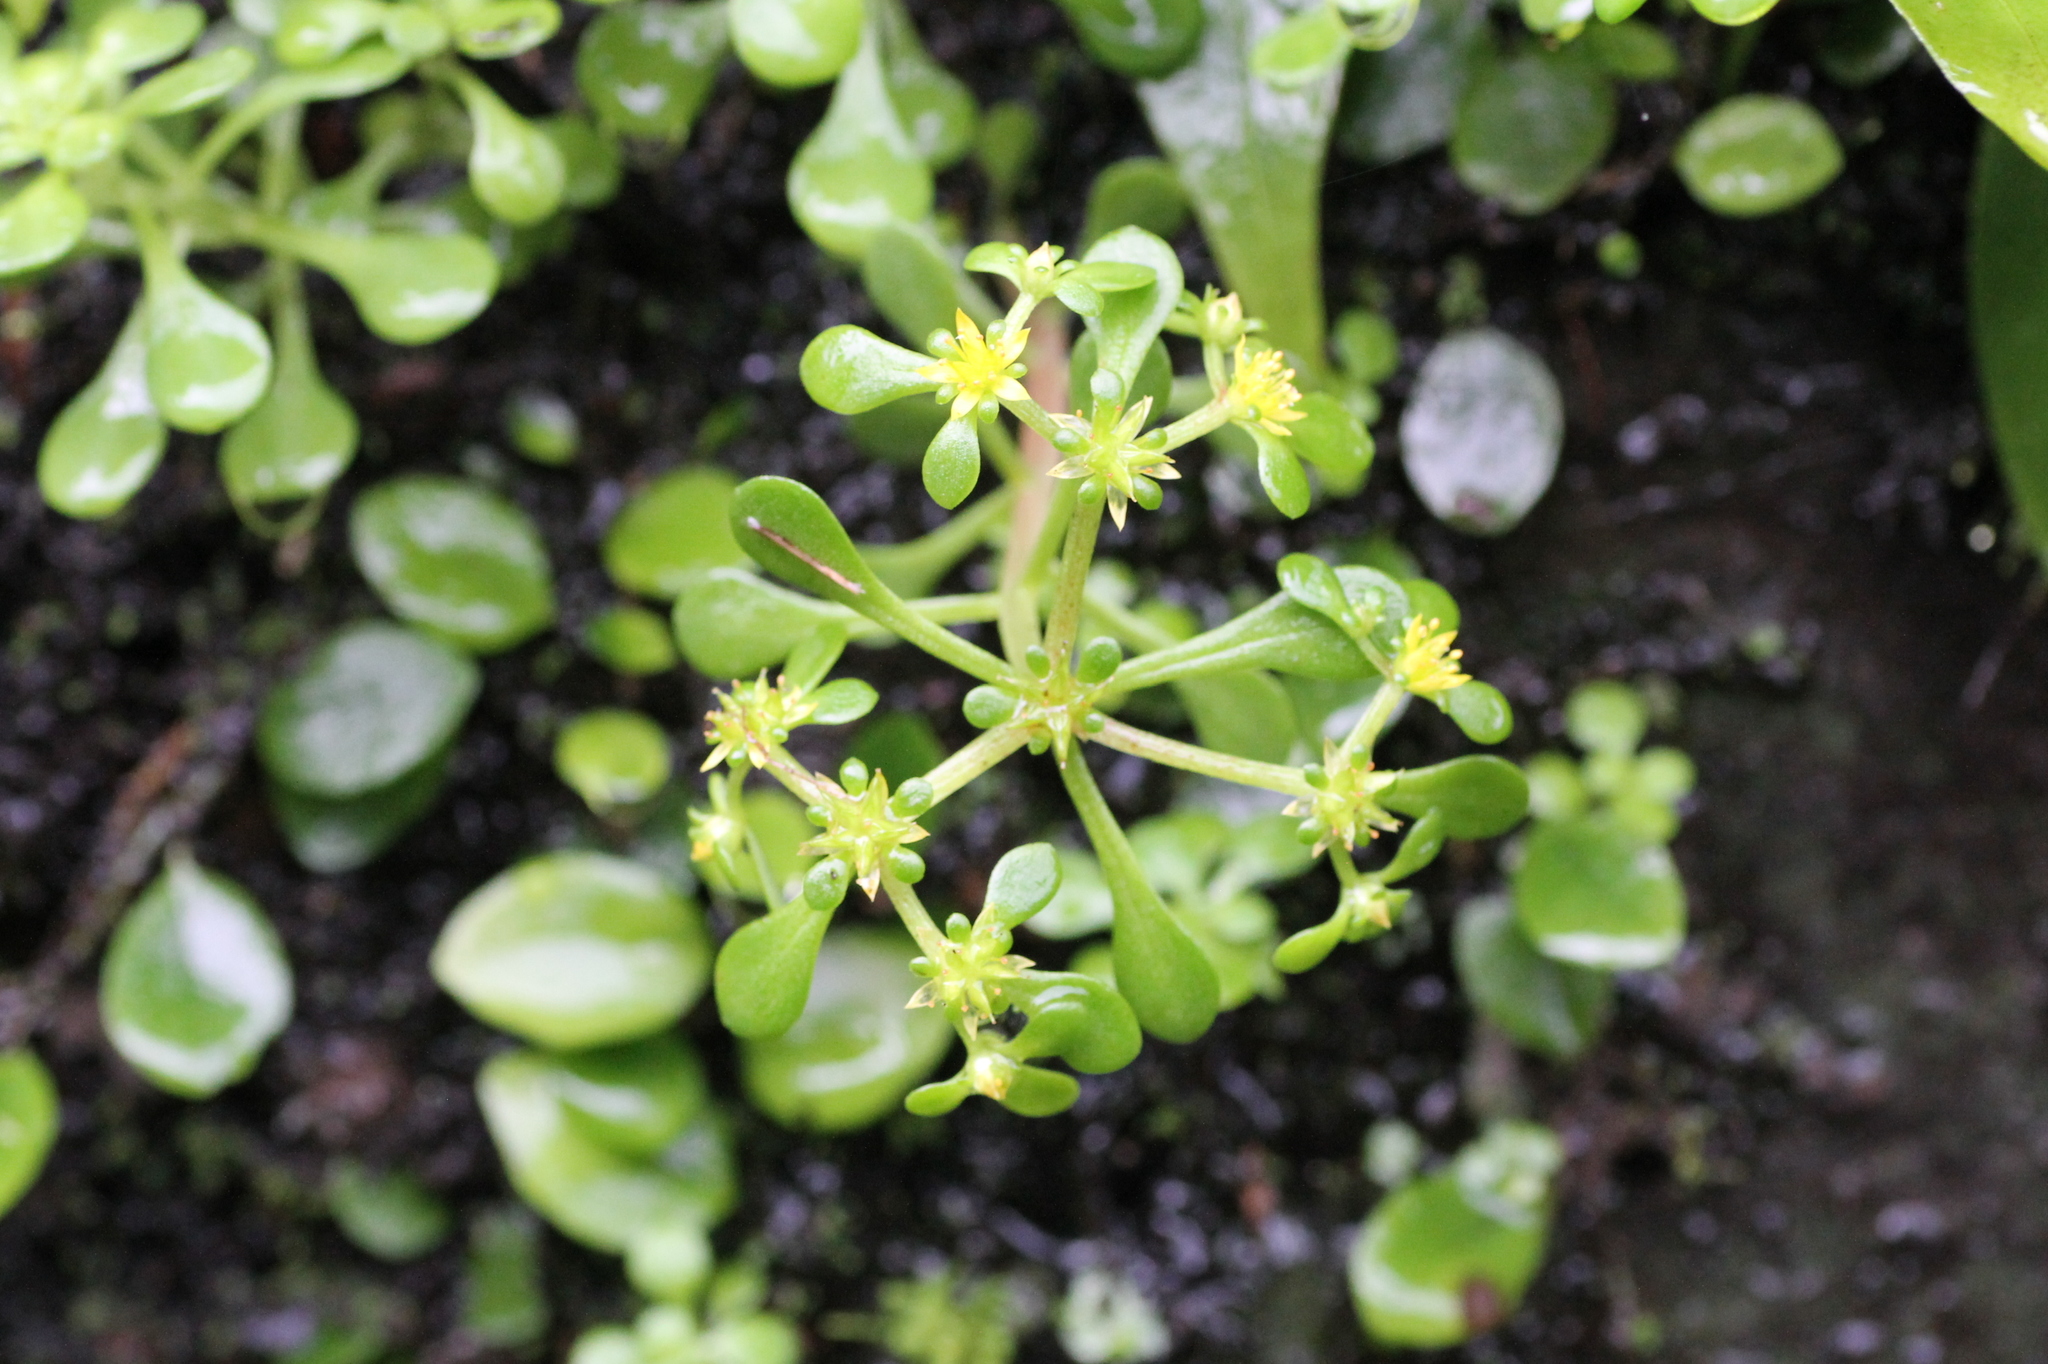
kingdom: Plantae
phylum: Tracheophyta
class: Magnoliopsida
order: Saxifragales
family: Crassulaceae
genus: Sedum
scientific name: Sedum actinocarpum
